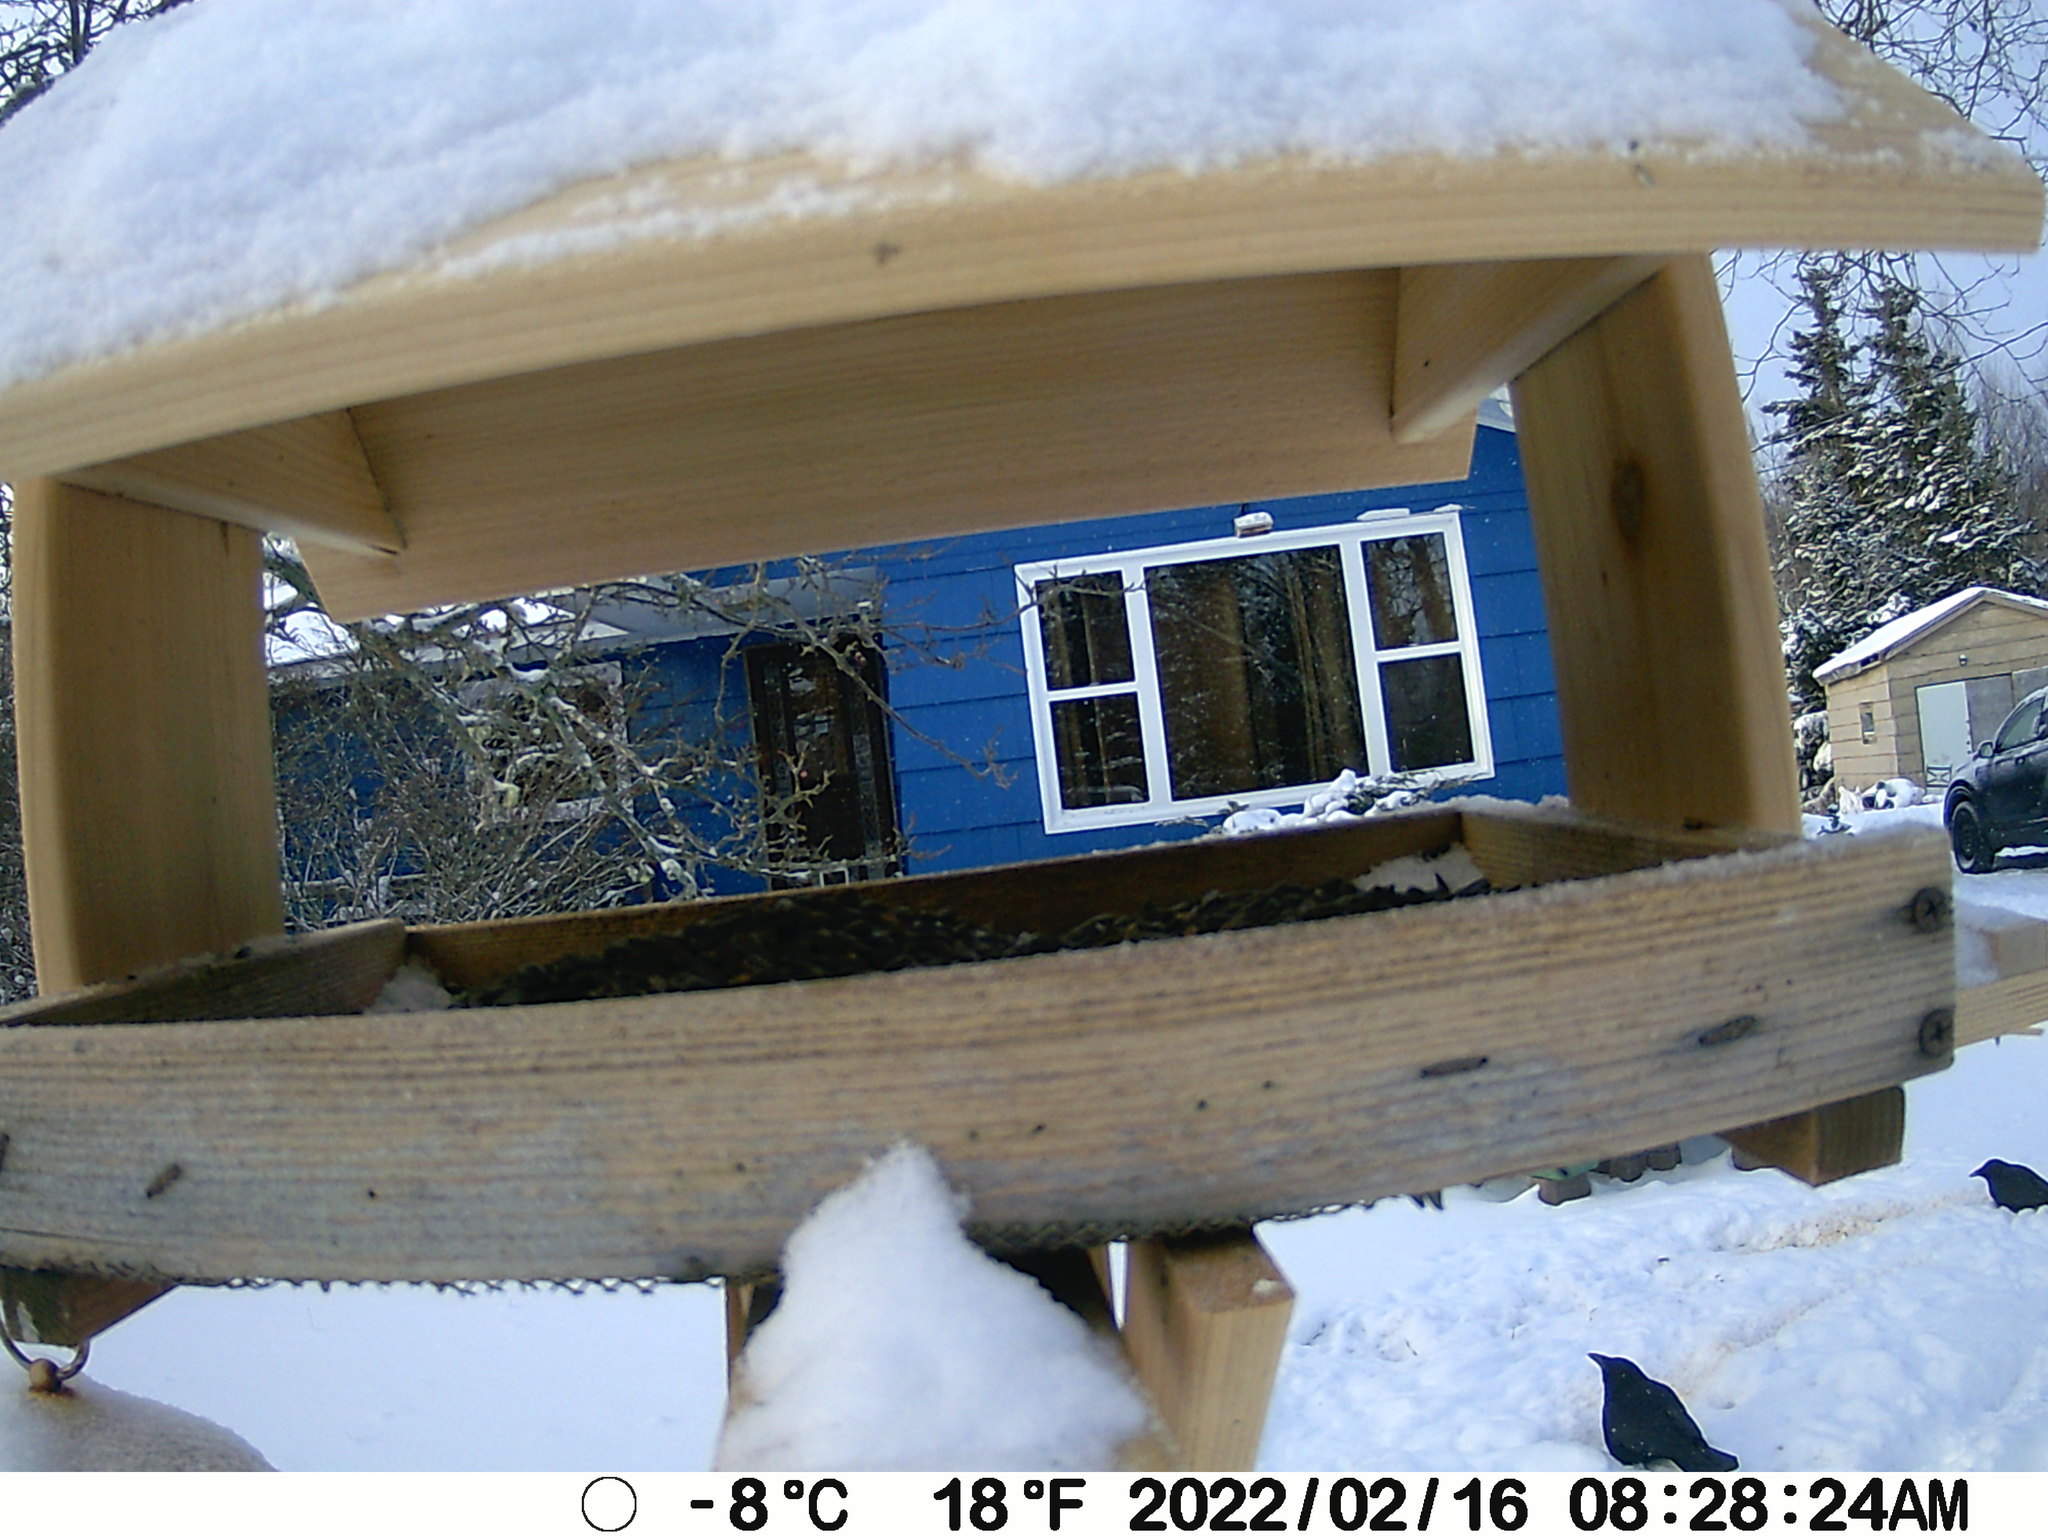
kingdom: Animalia
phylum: Chordata
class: Aves
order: Passeriformes
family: Corvidae
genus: Corvus
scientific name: Corvus brachyrhynchos
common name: American crow
